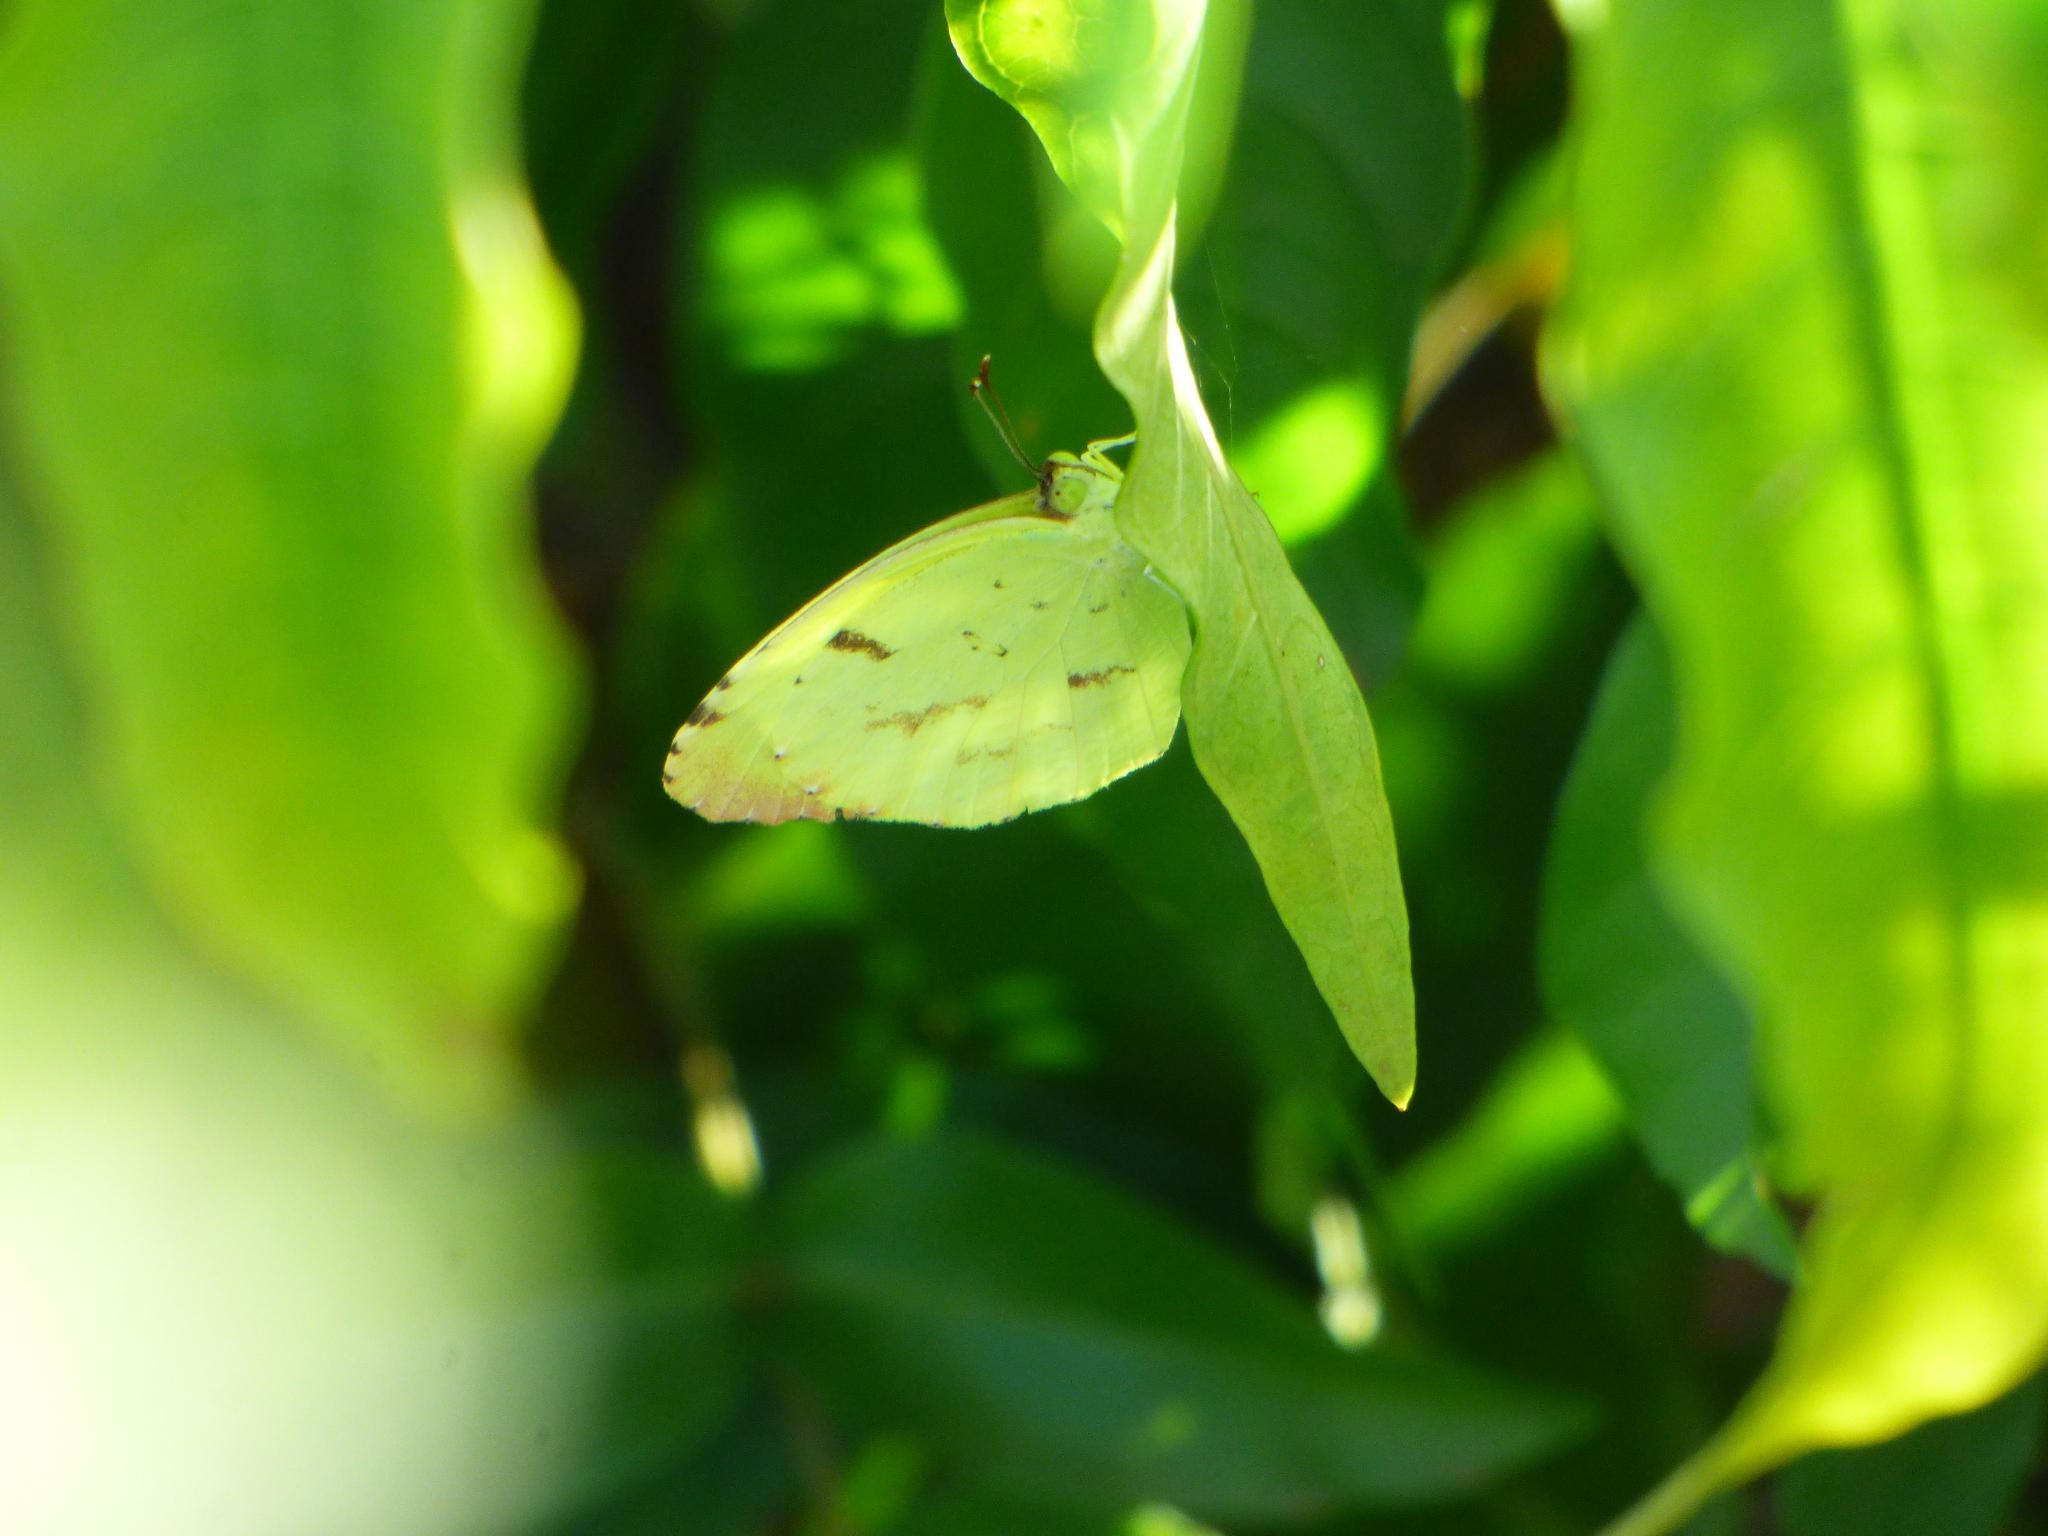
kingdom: Animalia
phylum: Arthropoda
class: Insecta
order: Lepidoptera
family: Pieridae
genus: Teriocolias
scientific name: Teriocolias
